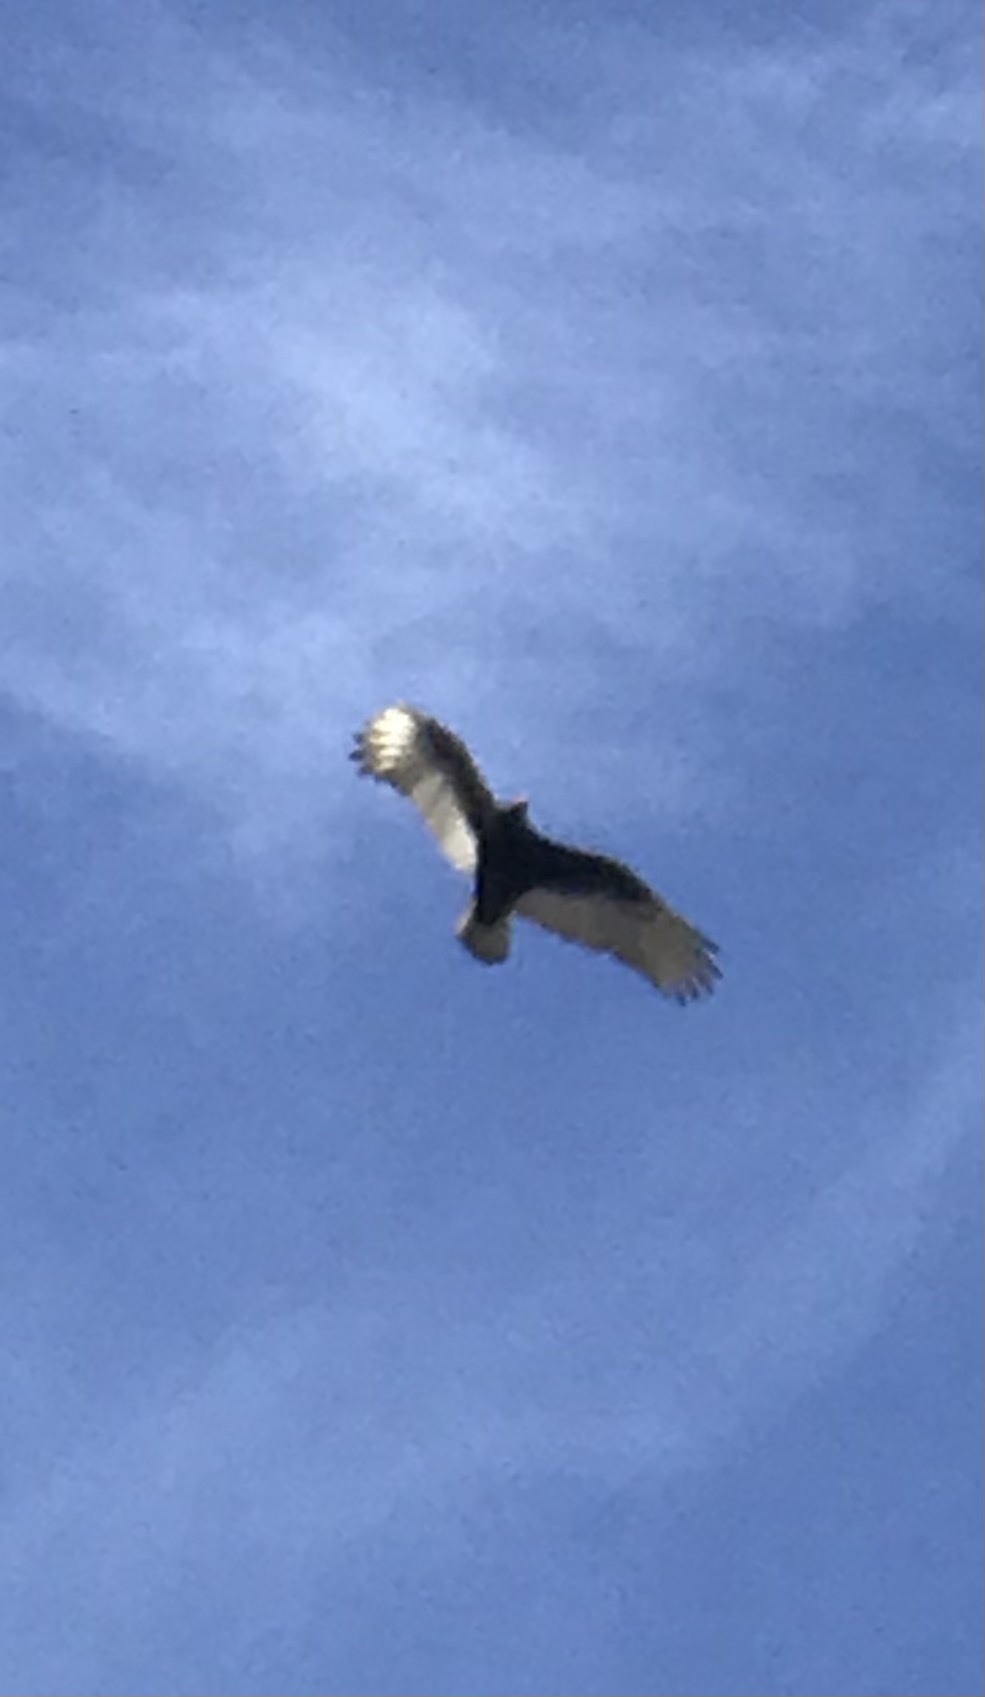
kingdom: Animalia
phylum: Chordata
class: Aves
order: Accipitriformes
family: Cathartidae
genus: Cathartes
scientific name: Cathartes aura
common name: Turkey vulture
